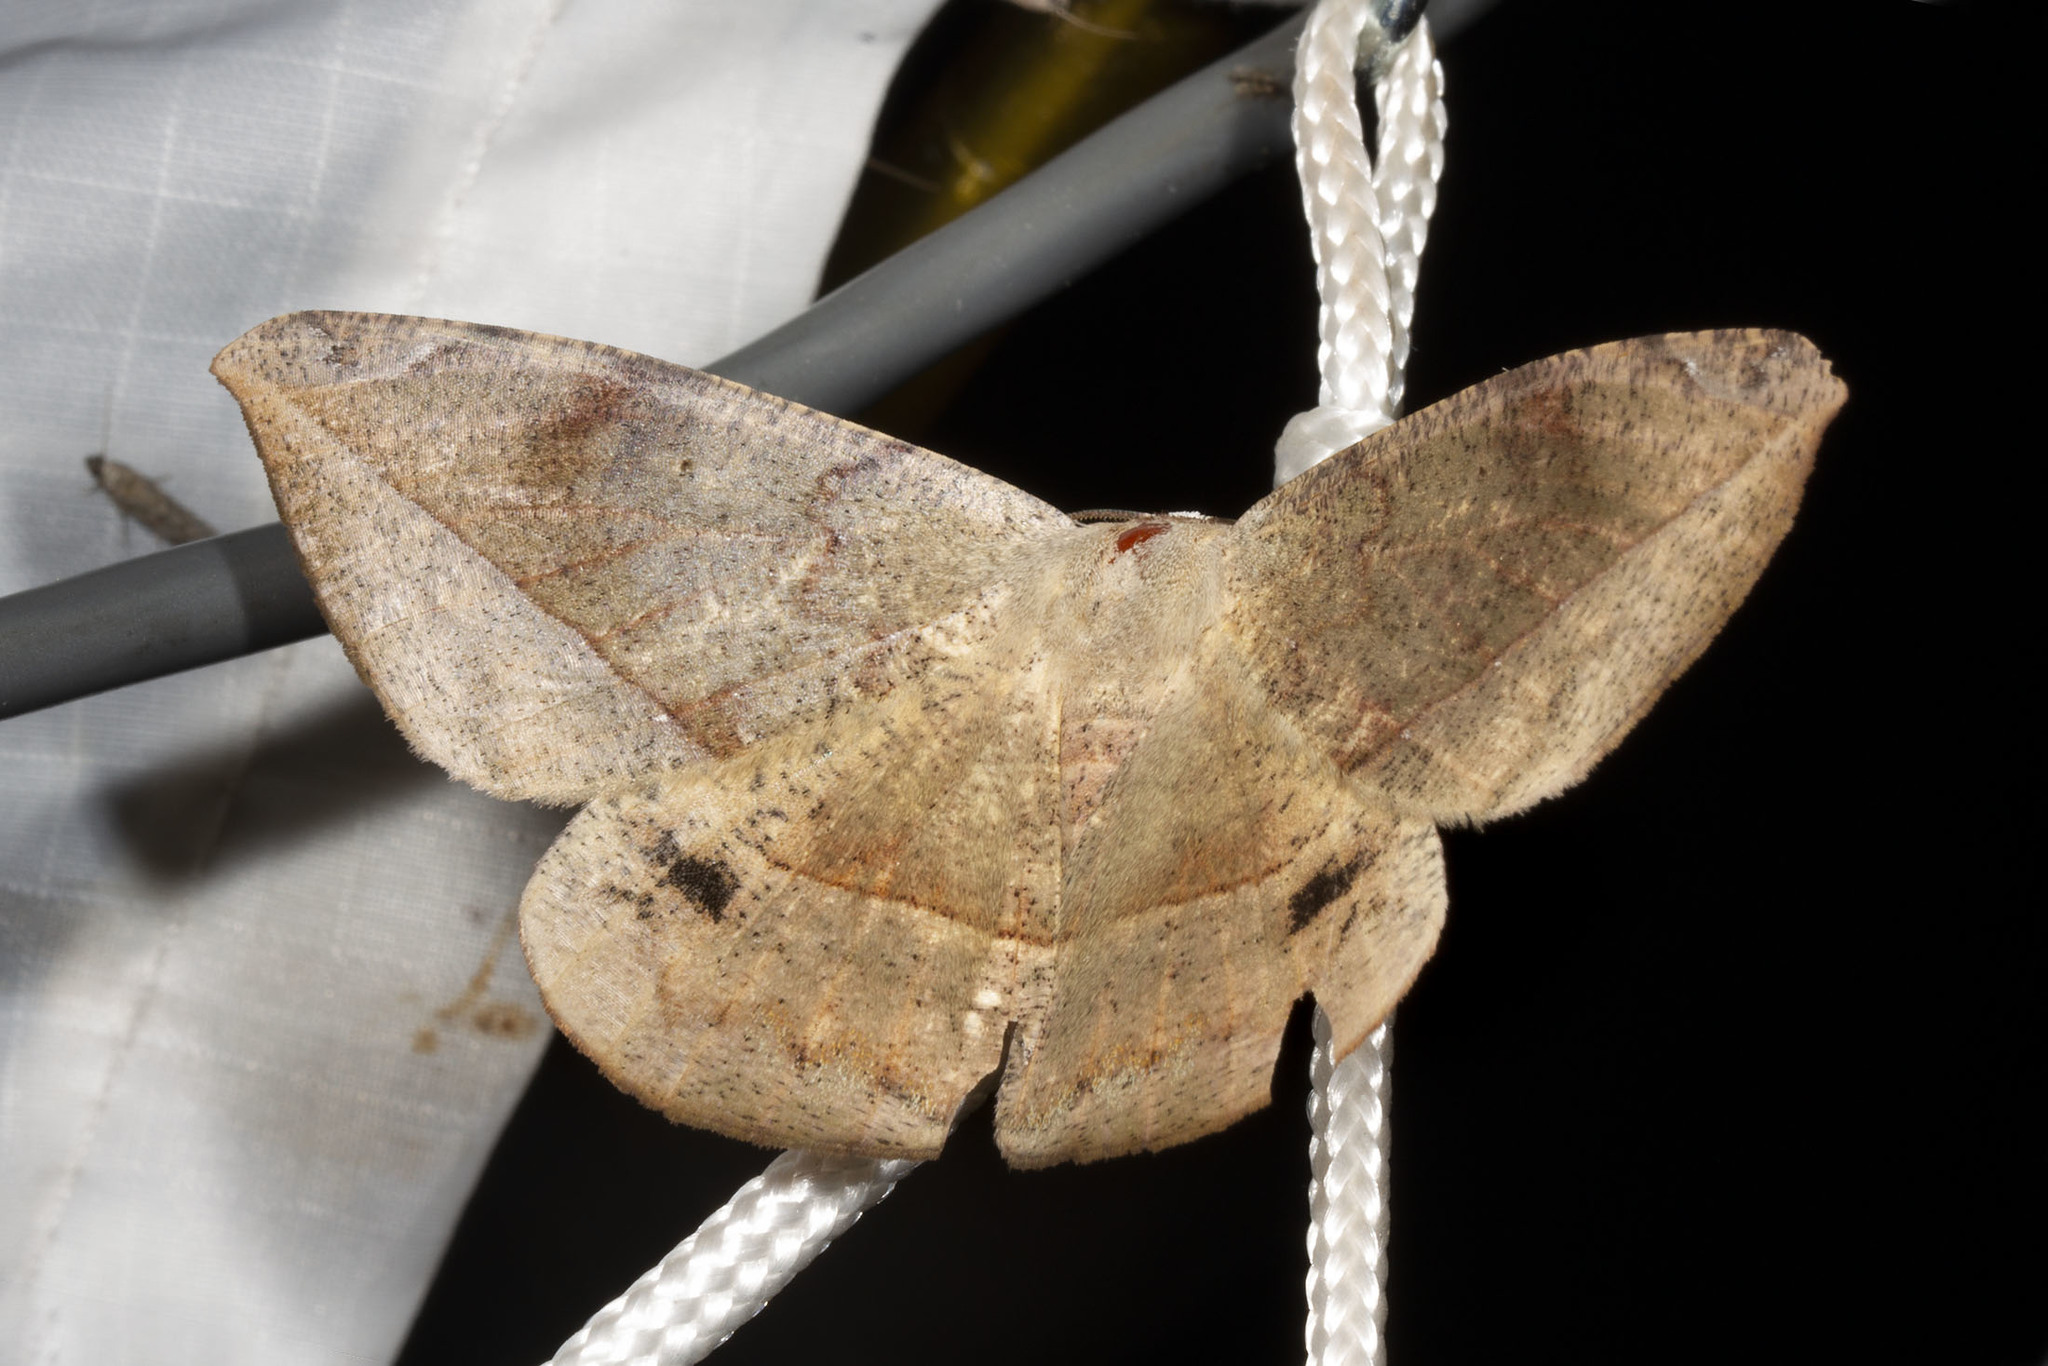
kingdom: Animalia
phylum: Arthropoda
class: Insecta
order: Lepidoptera
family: Geometridae
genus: Oxydia
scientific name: Oxydia vesulia
